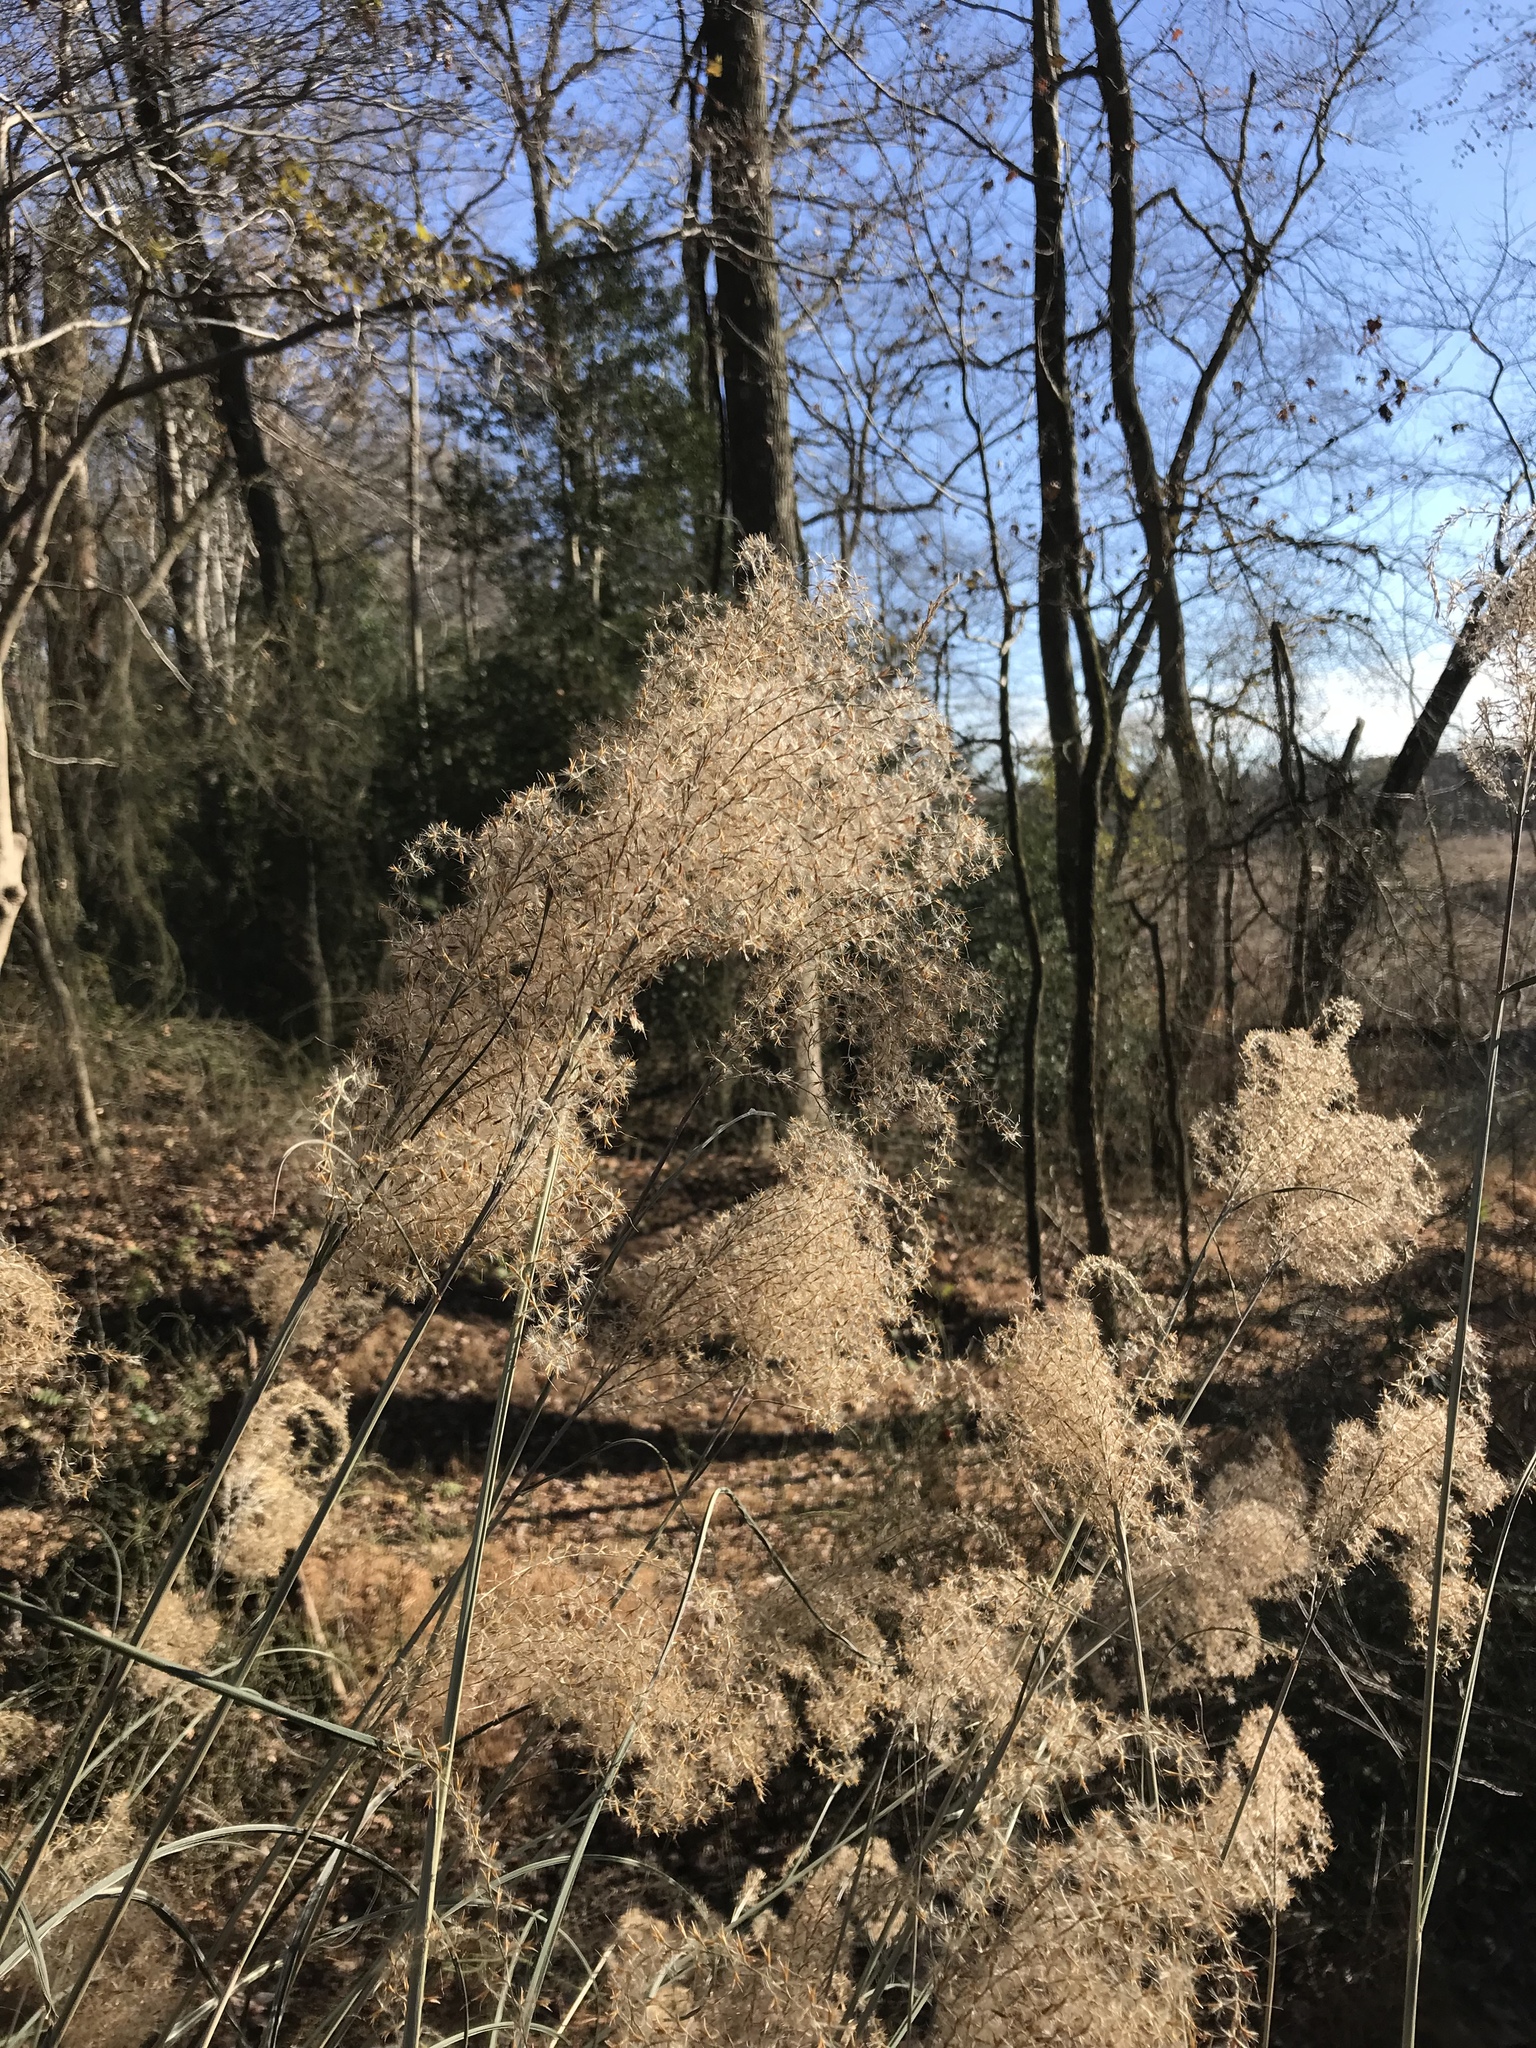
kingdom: Plantae
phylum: Tracheophyta
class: Liliopsida
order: Poales
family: Poaceae
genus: Miscanthus
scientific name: Miscanthus sinensis
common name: Chinese silvergrass
